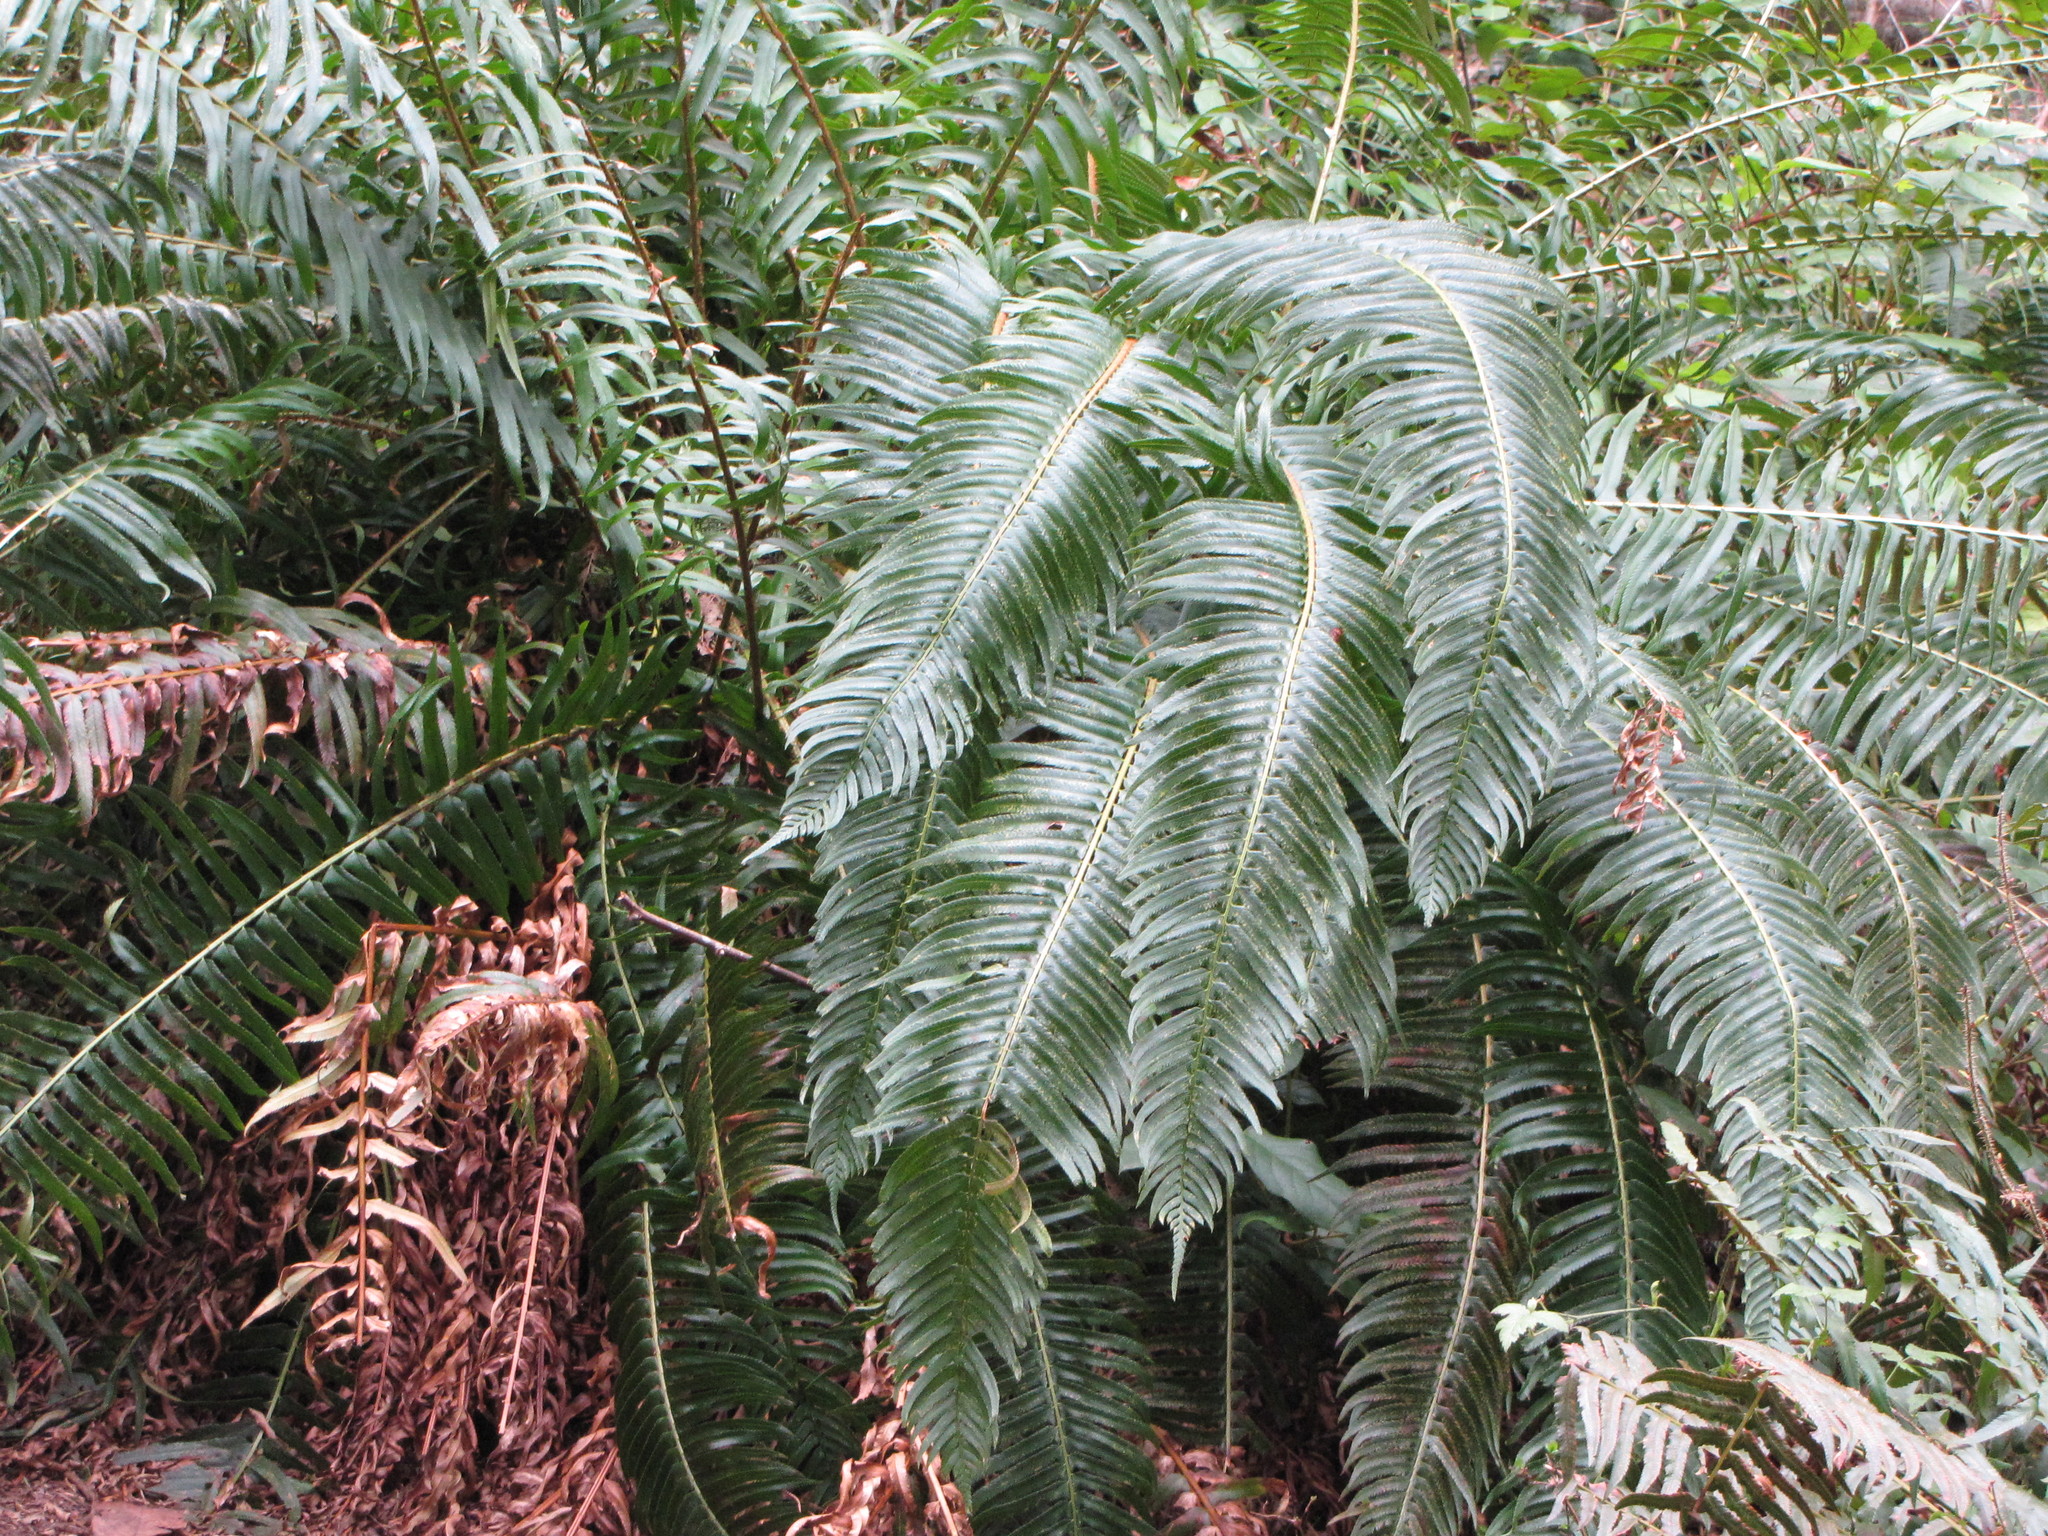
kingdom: Plantae
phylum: Tracheophyta
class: Polypodiopsida
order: Polypodiales
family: Dryopteridaceae
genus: Polystichum
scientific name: Polystichum munitum
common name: Western sword-fern
